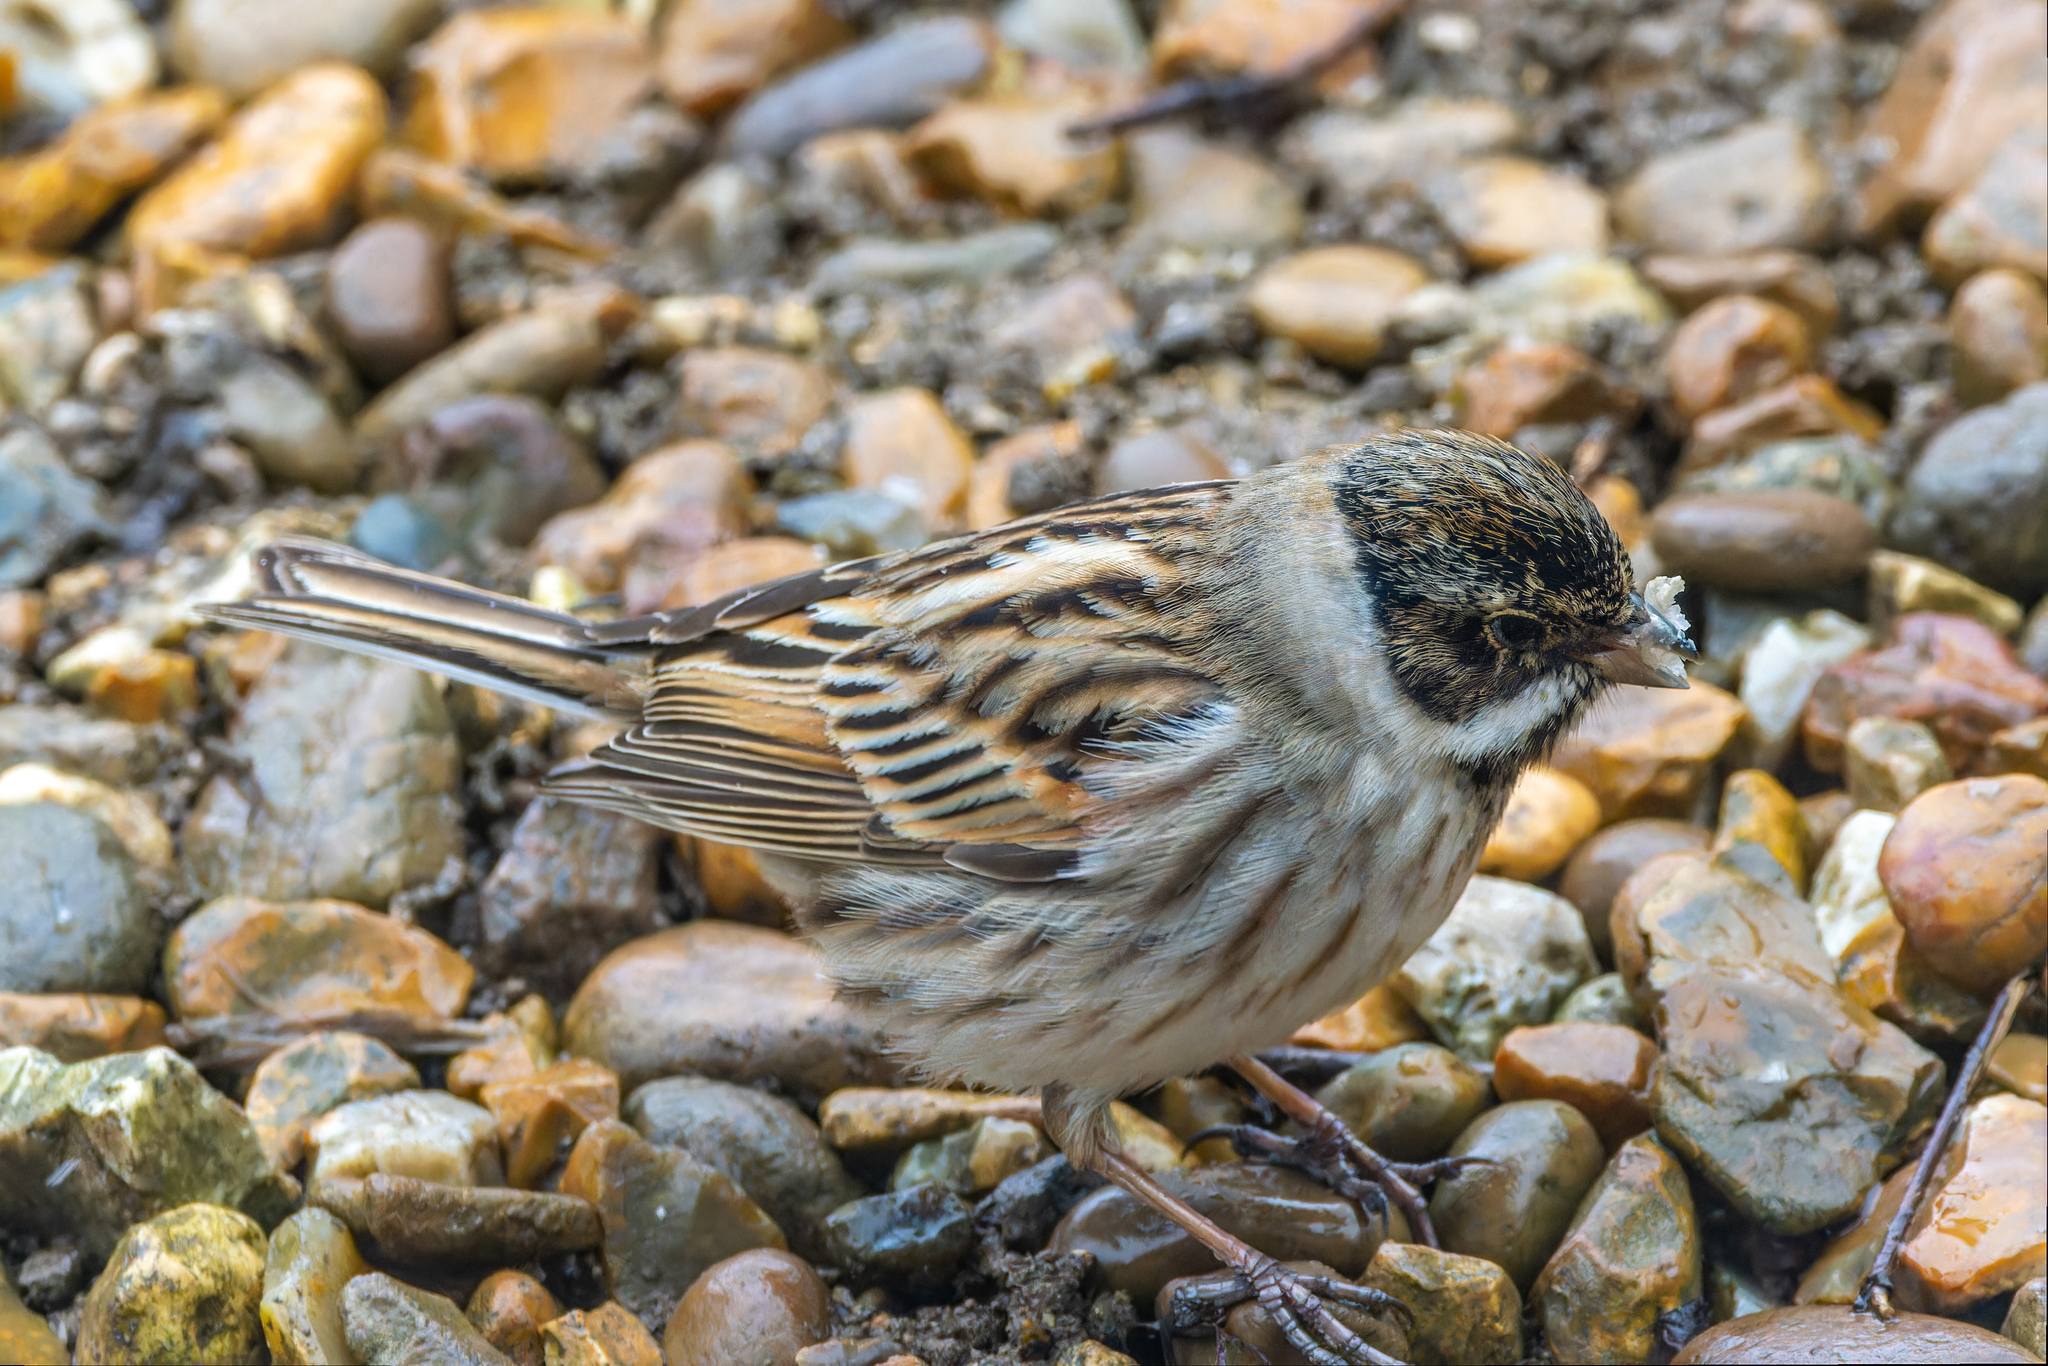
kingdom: Animalia
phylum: Chordata
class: Aves
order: Passeriformes
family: Emberizidae
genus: Emberiza
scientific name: Emberiza schoeniclus
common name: Reed bunting
